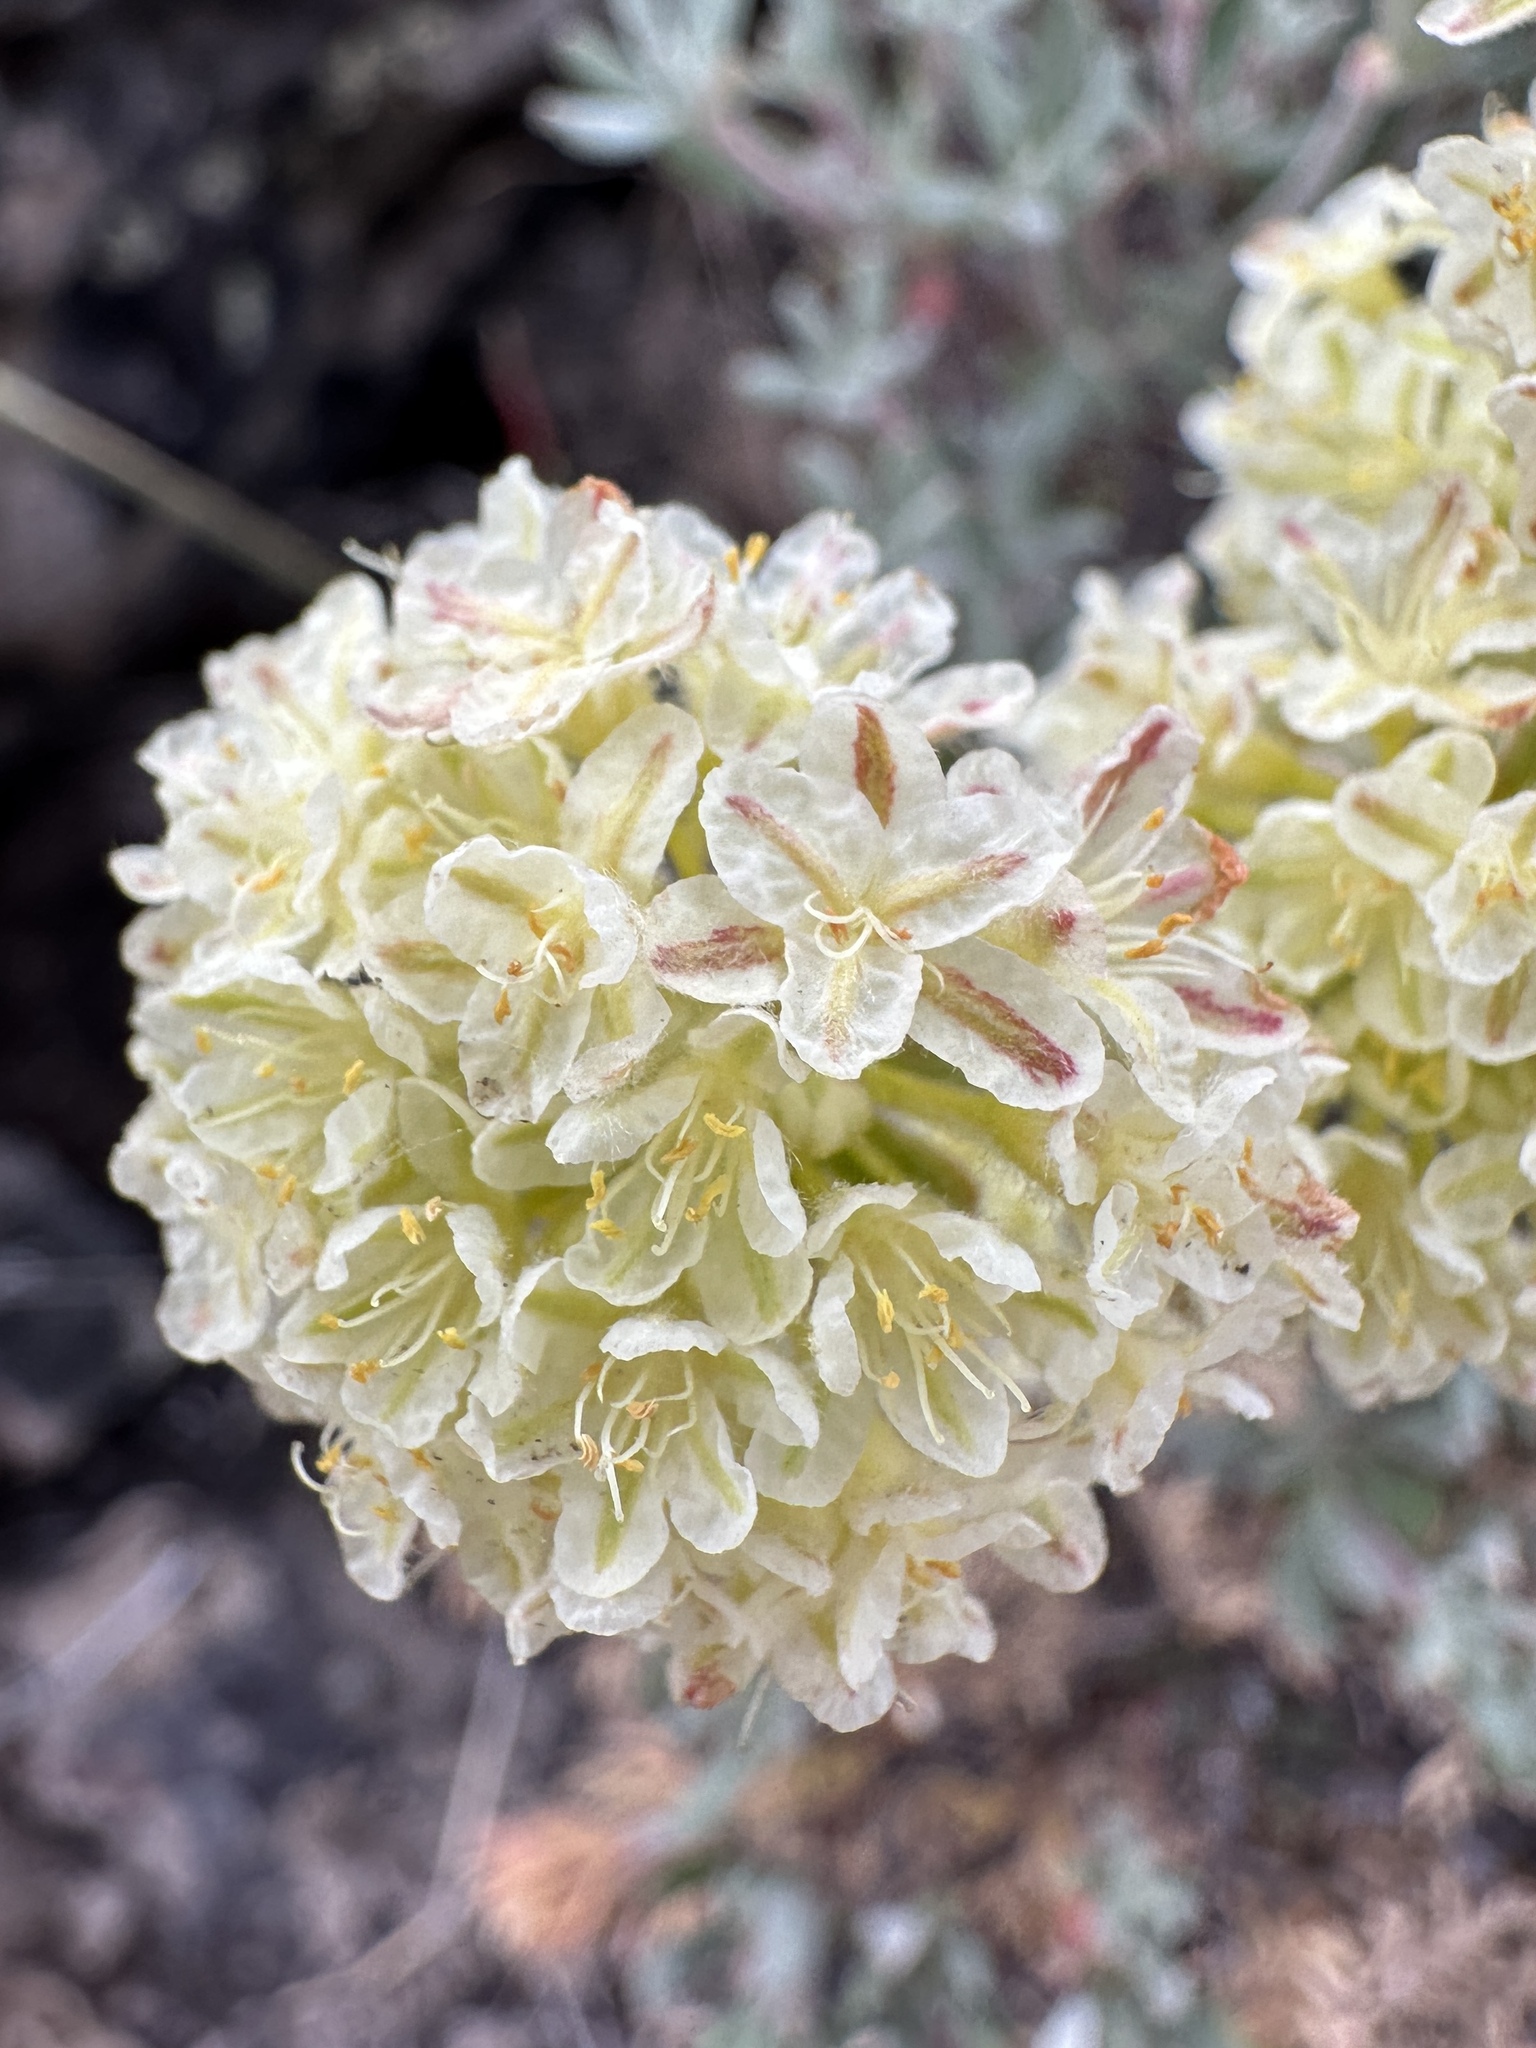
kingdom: Plantae
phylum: Tracheophyta
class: Magnoliopsida
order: Caryophyllales
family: Polygonaceae
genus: Eriogonum
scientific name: Eriogonum sphaerocephalum
